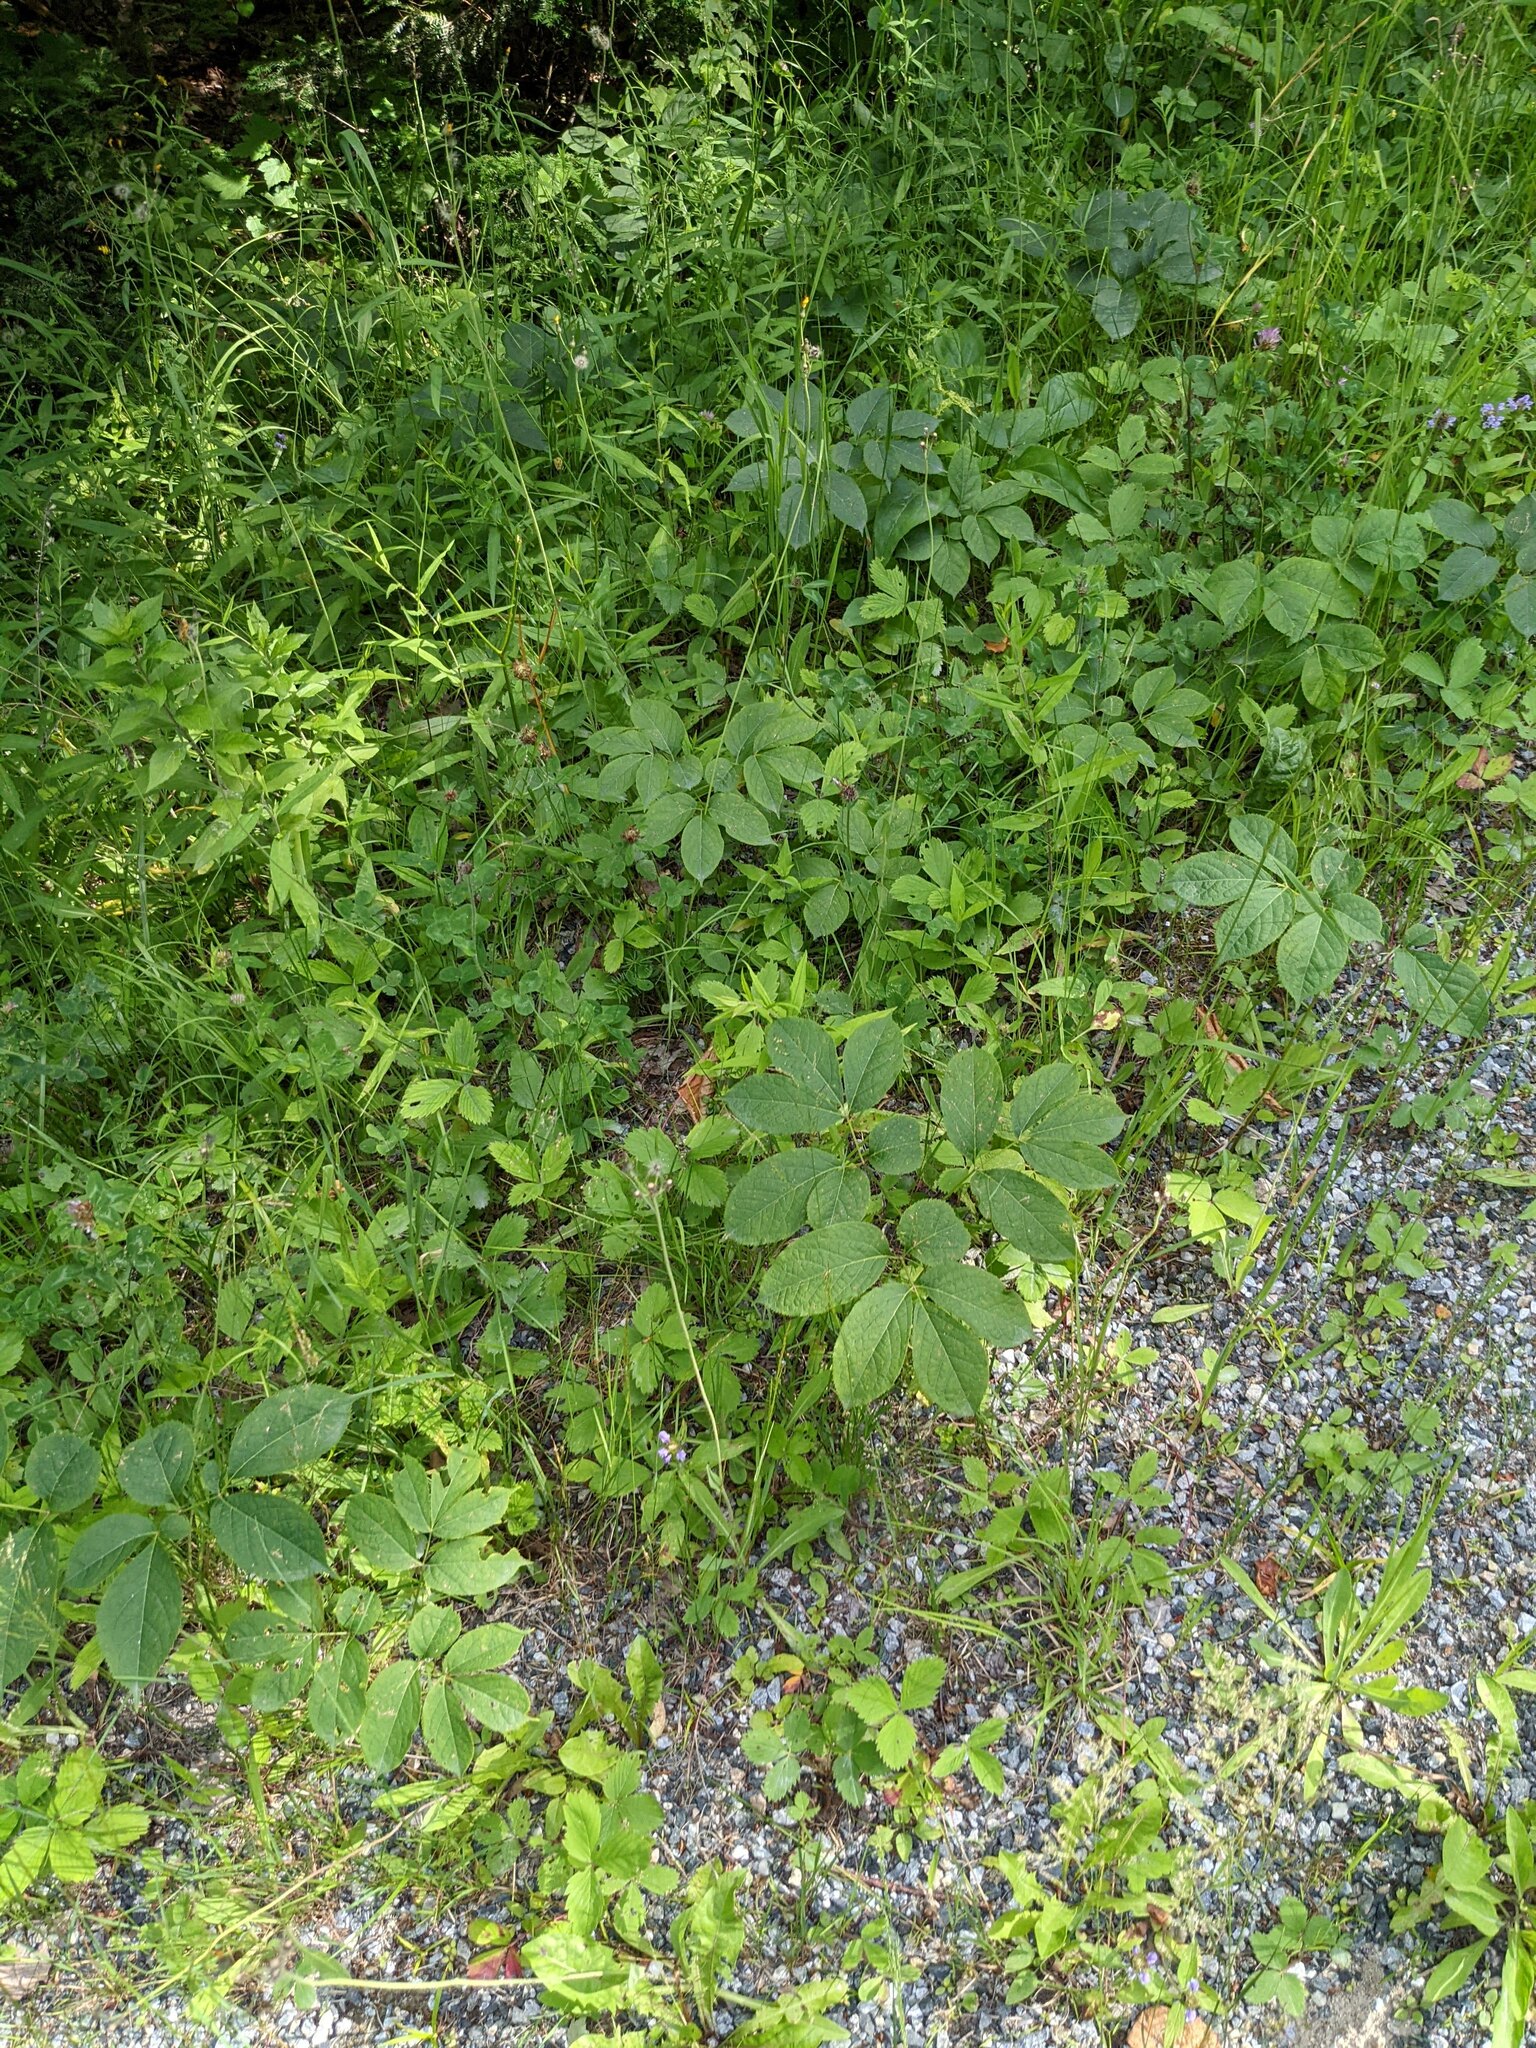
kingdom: Plantae
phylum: Tracheophyta
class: Magnoliopsida
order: Apiales
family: Araliaceae
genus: Aralia
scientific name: Aralia nudicaulis
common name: Wild sarsaparilla
